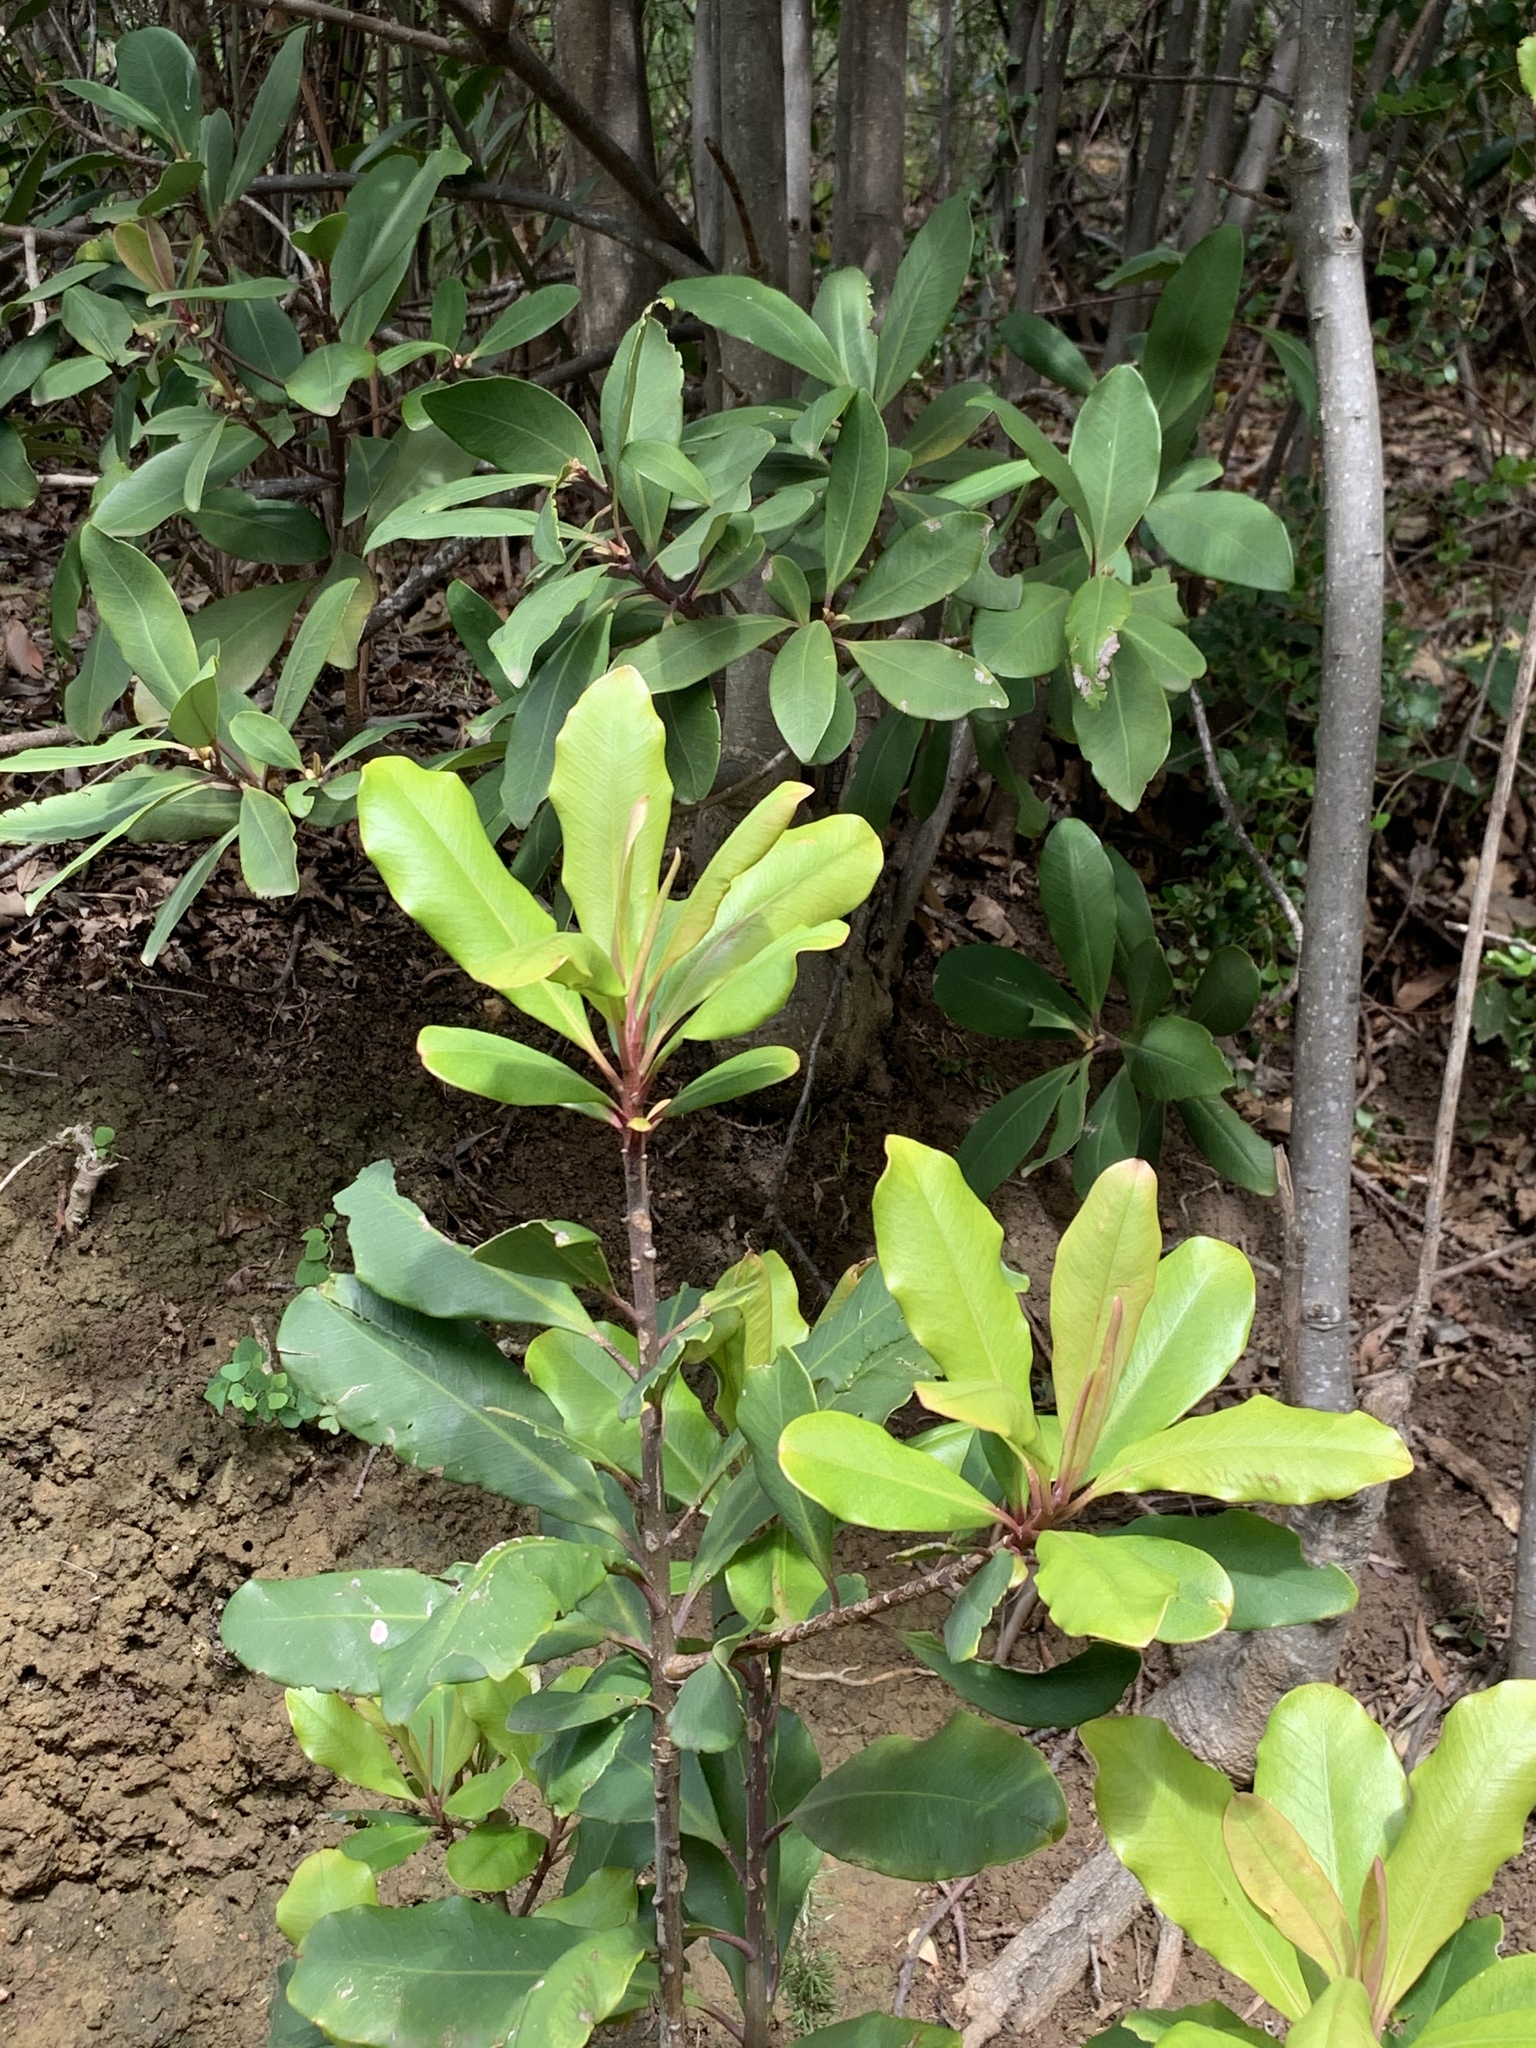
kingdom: Plantae
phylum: Tracheophyta
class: Magnoliopsida
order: Ericales
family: Primulaceae
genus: Myrsine
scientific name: Myrsine melanophloeos
